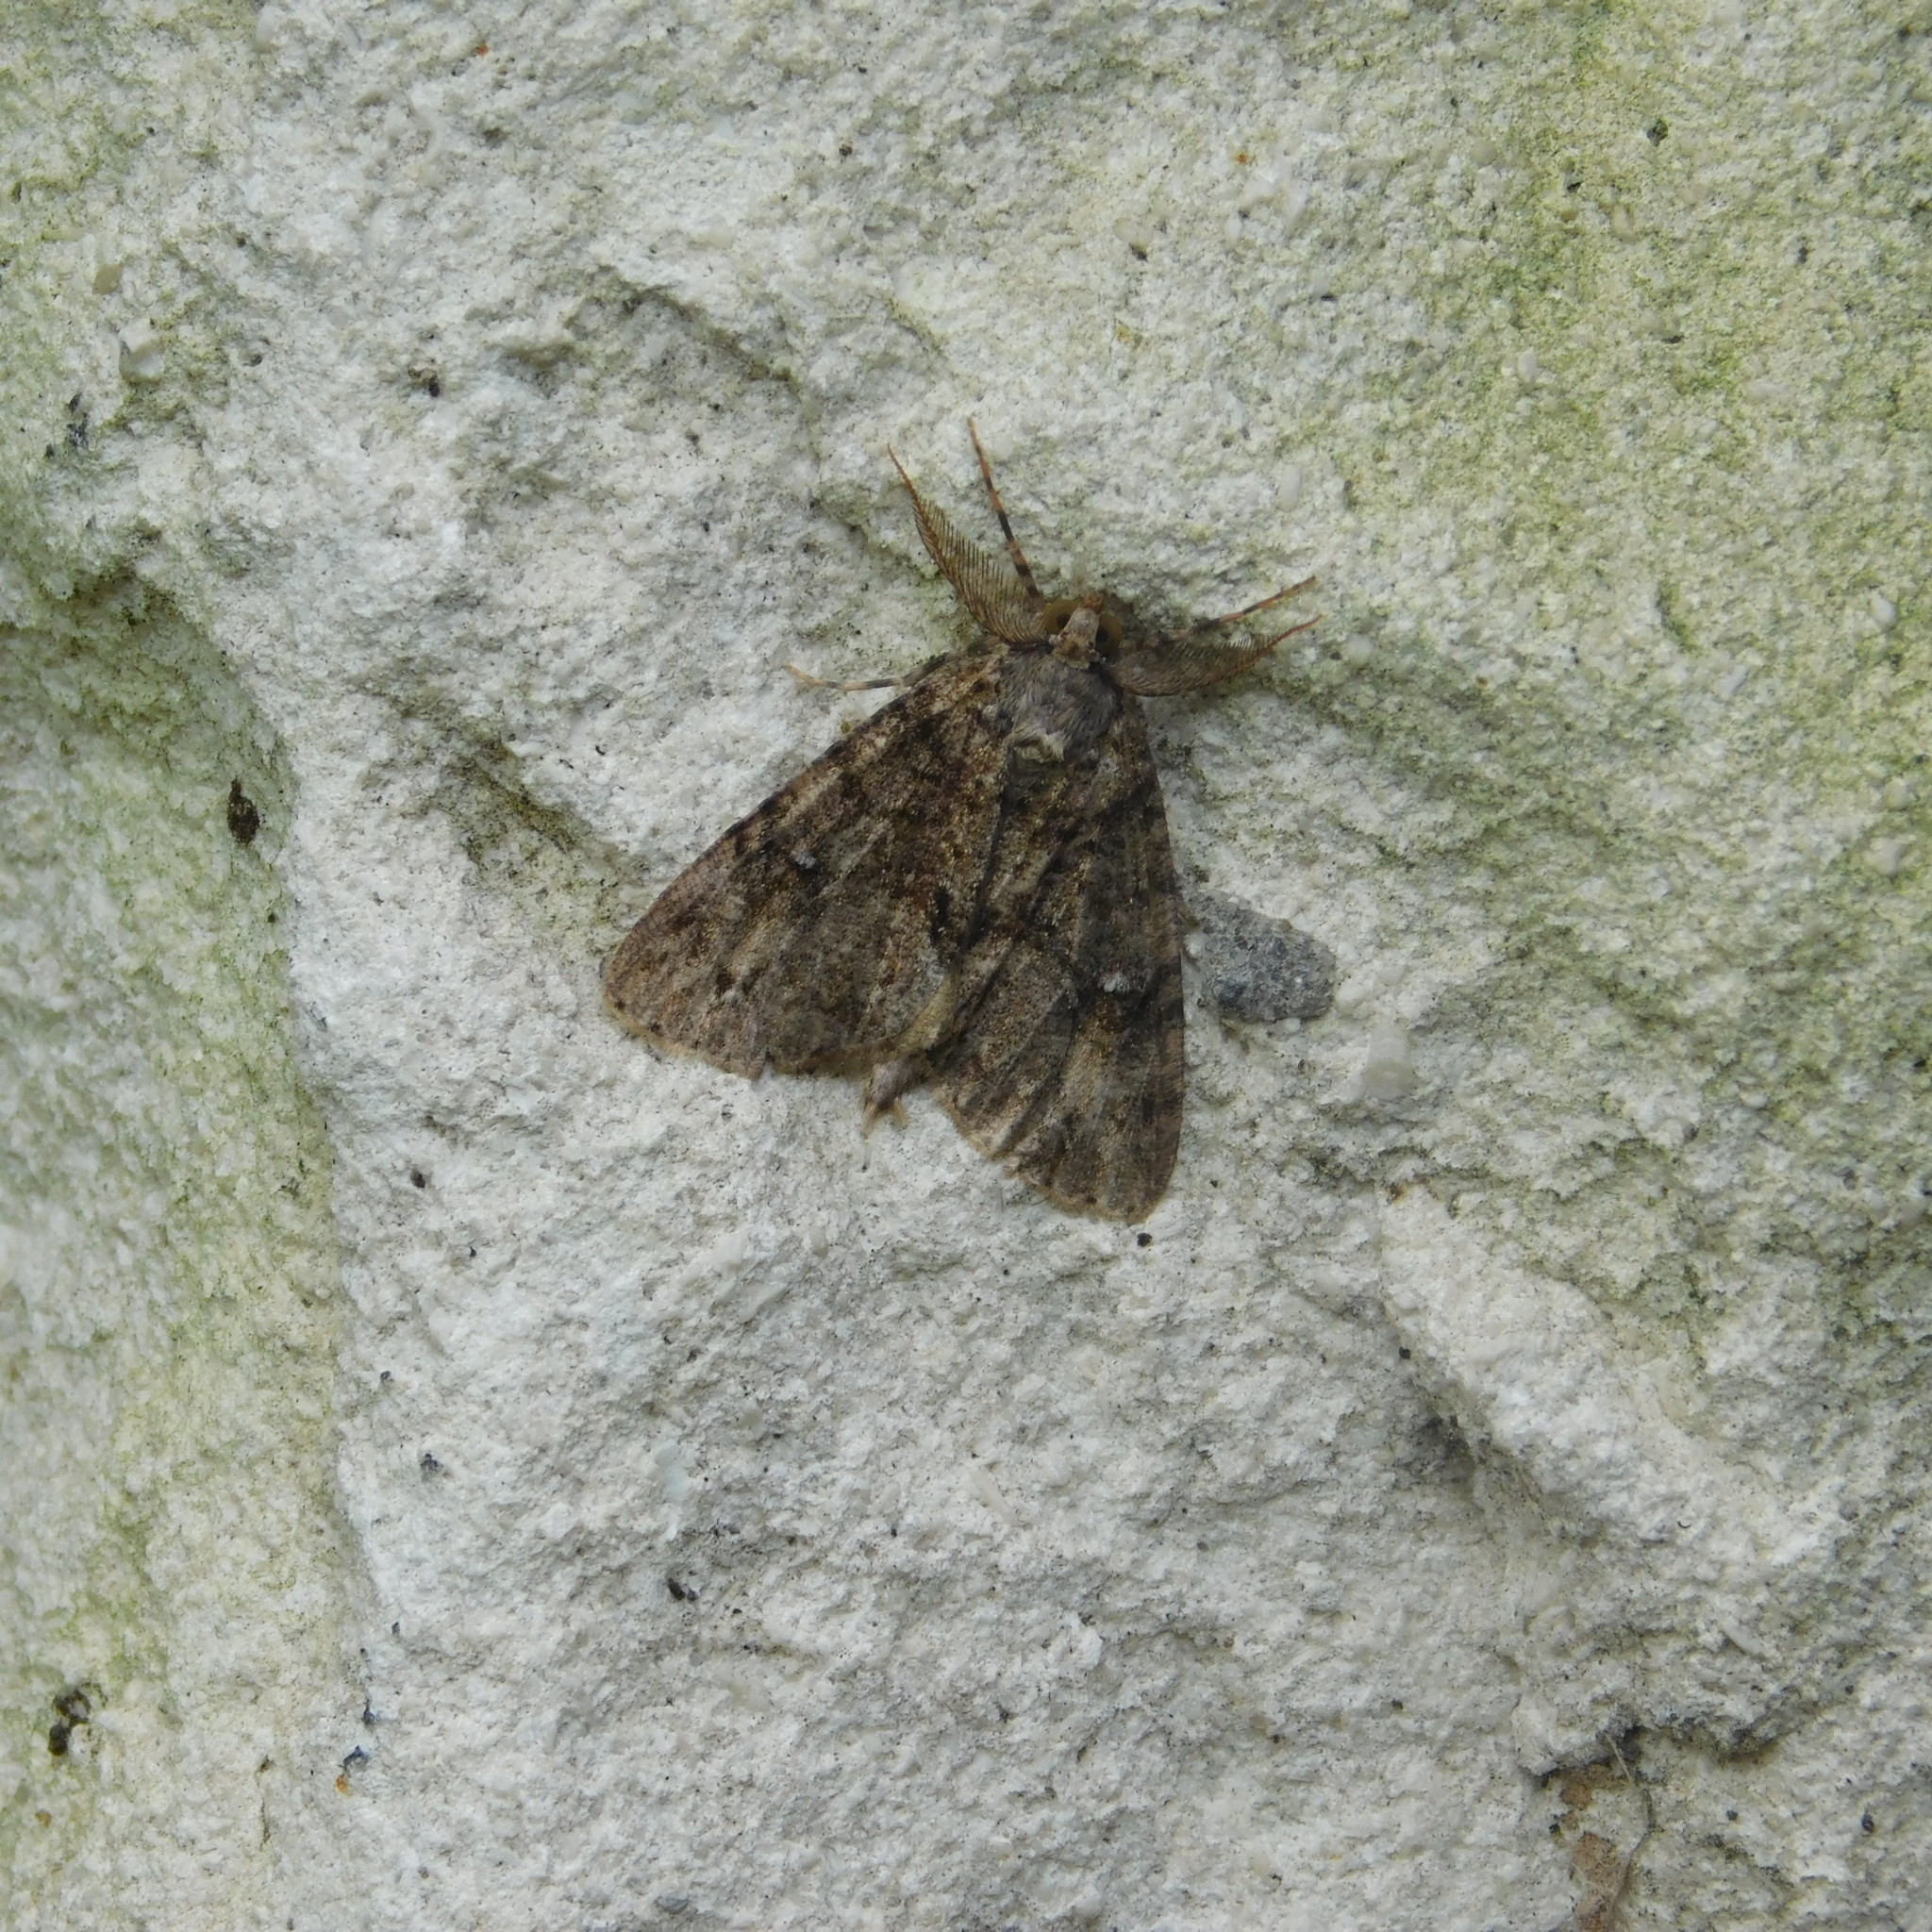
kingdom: Animalia
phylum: Arthropoda
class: Insecta
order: Lepidoptera
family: Geometridae
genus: Pseudocoremia
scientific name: Pseudocoremia suavis
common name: Common forest looper
